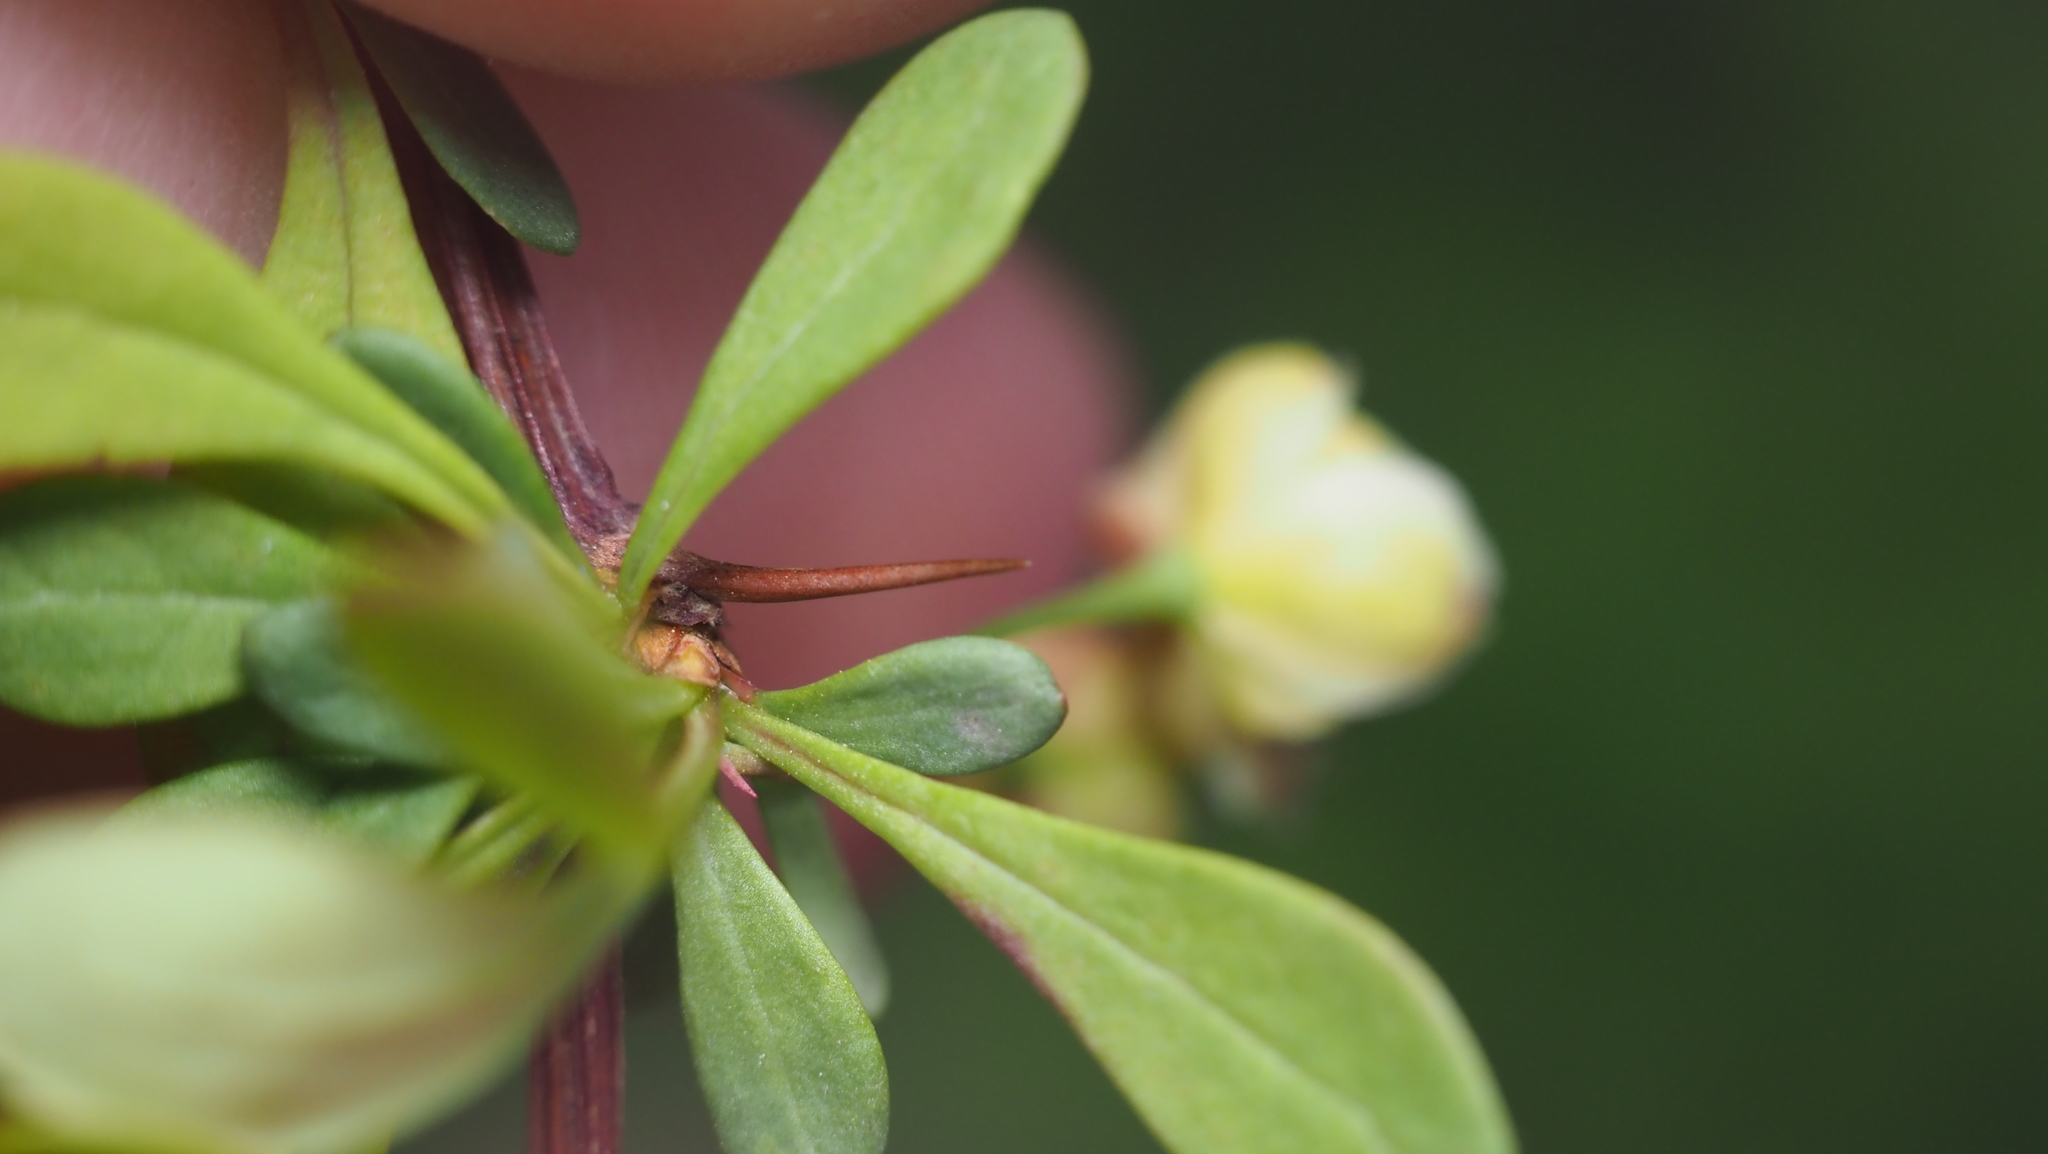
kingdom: Plantae
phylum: Tracheophyta
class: Magnoliopsida
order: Ranunculales
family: Berberidaceae
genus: Berberis
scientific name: Berberis thunbergii
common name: Japanese barberry
